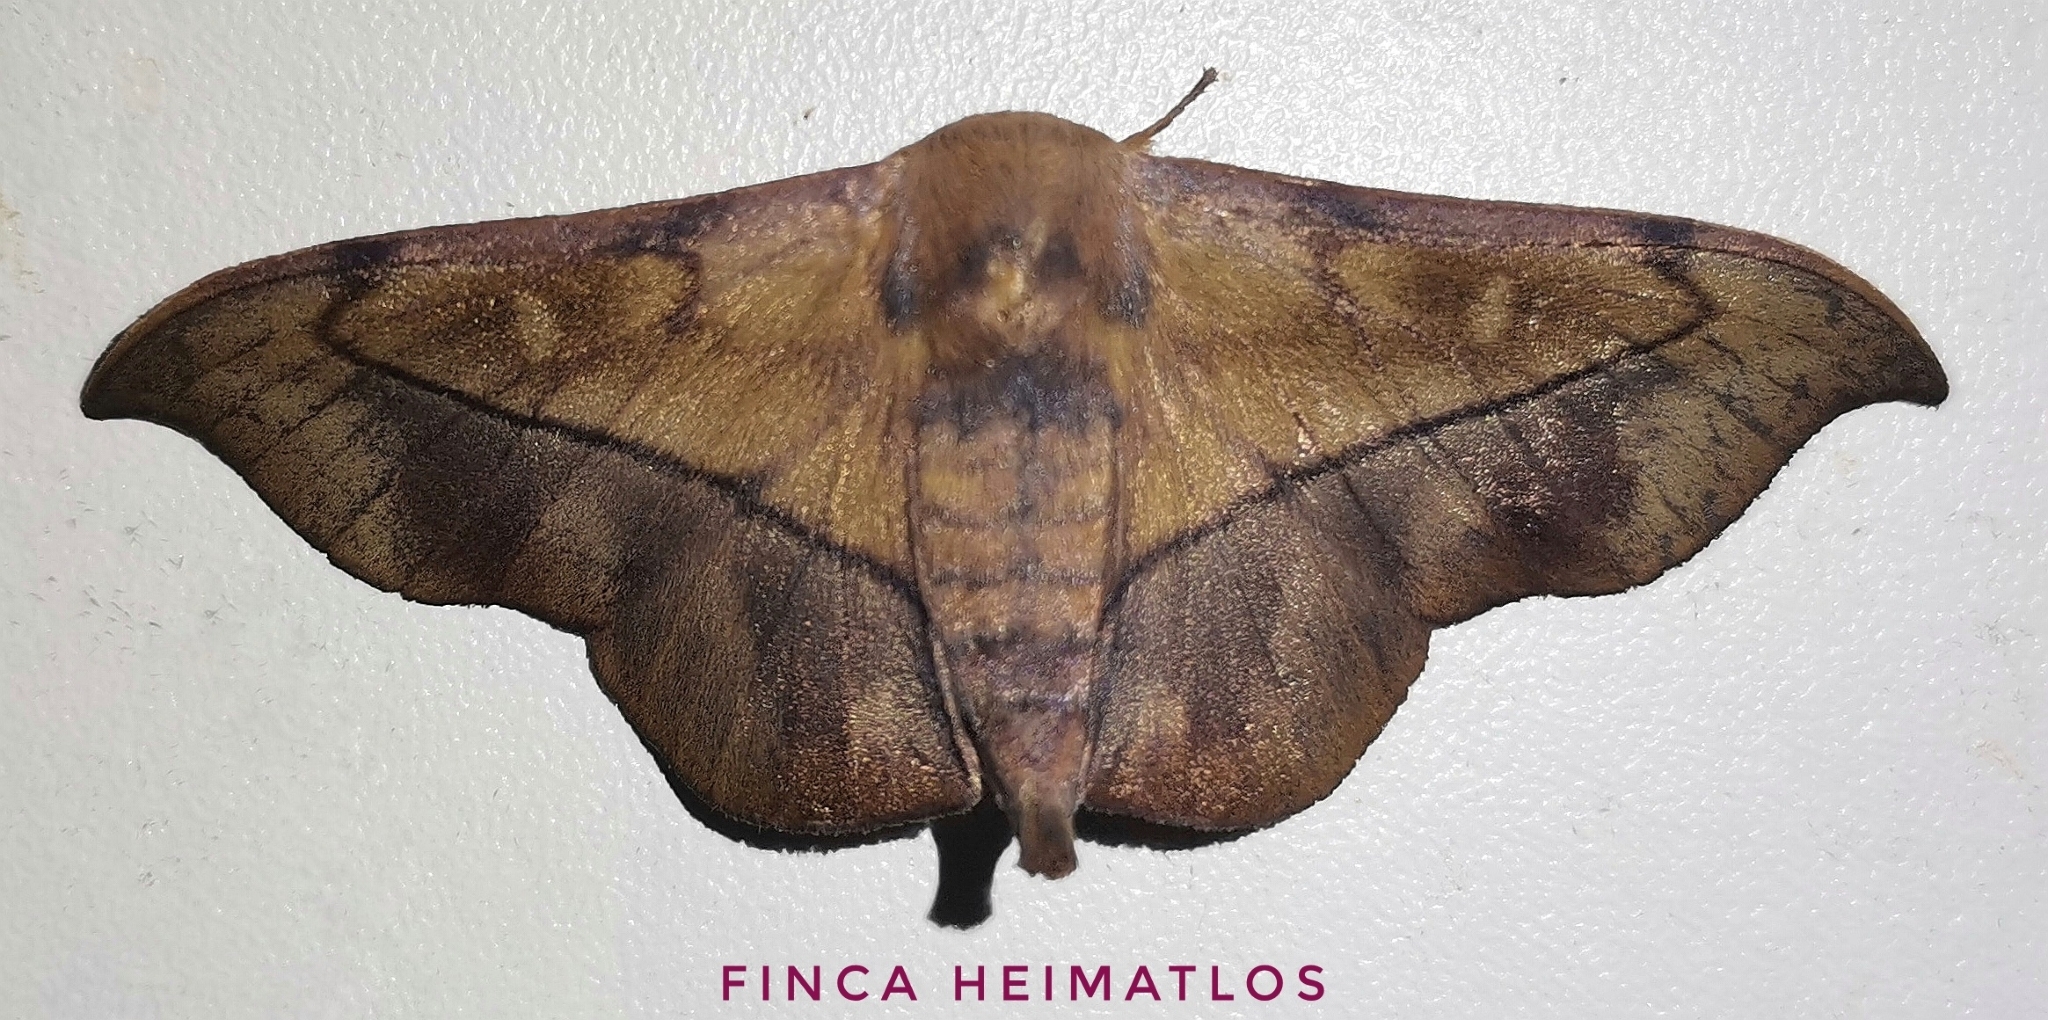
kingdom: Animalia
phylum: Arthropoda
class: Insecta
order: Lepidoptera
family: Mimallonidae
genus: Cicinnus
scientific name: Cicinnus anysia
